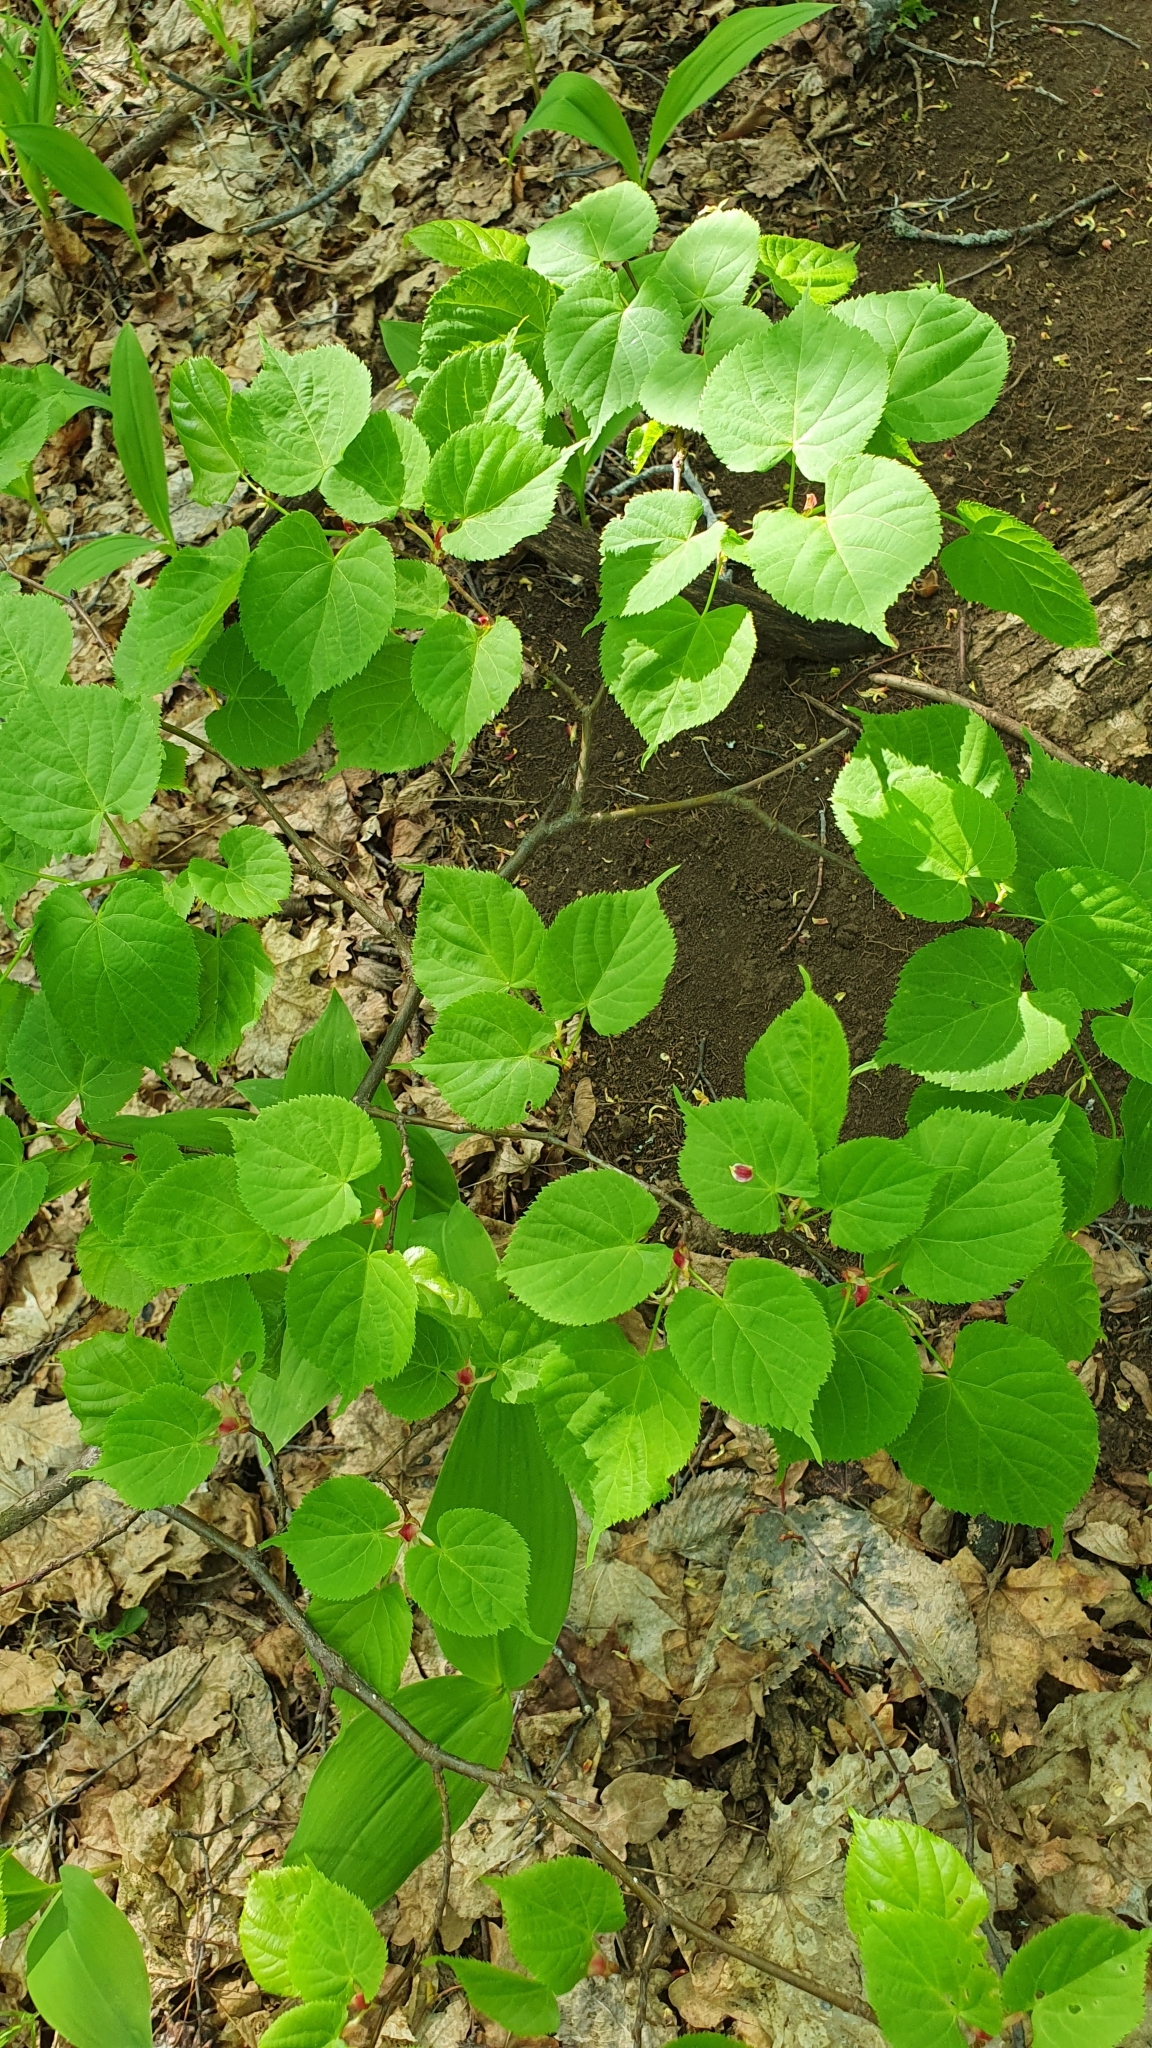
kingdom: Plantae
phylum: Tracheophyta
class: Magnoliopsida
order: Malvales
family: Malvaceae
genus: Tilia
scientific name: Tilia cordata
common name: Small-leaved lime
